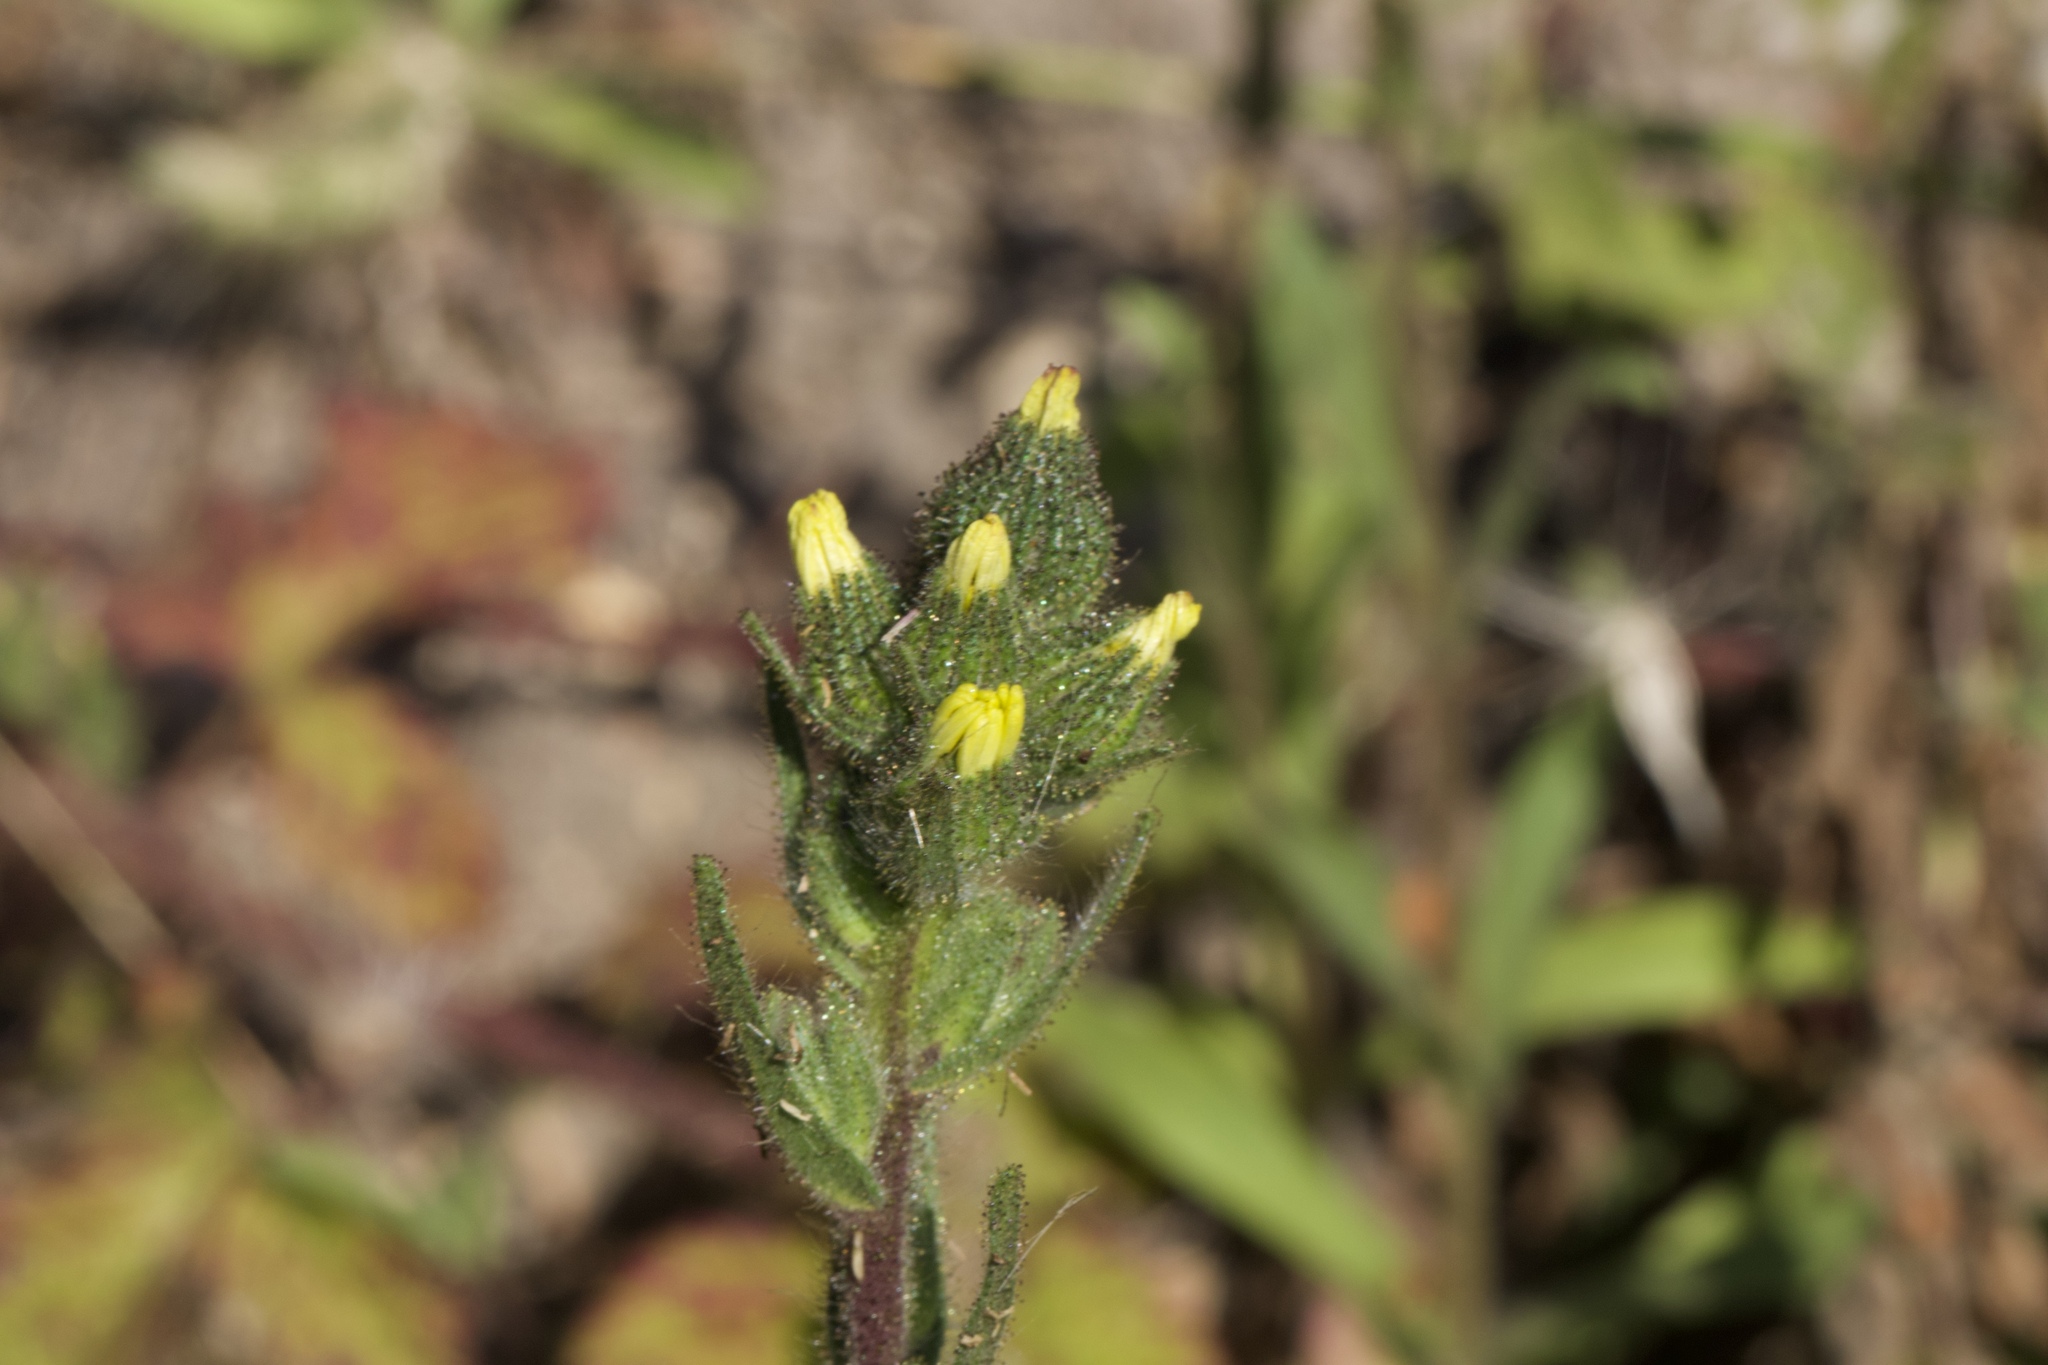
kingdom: Plantae
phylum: Tracheophyta
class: Magnoliopsida
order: Asterales
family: Asteraceae
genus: Madia
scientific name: Madia sativa
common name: Coast tarweed
